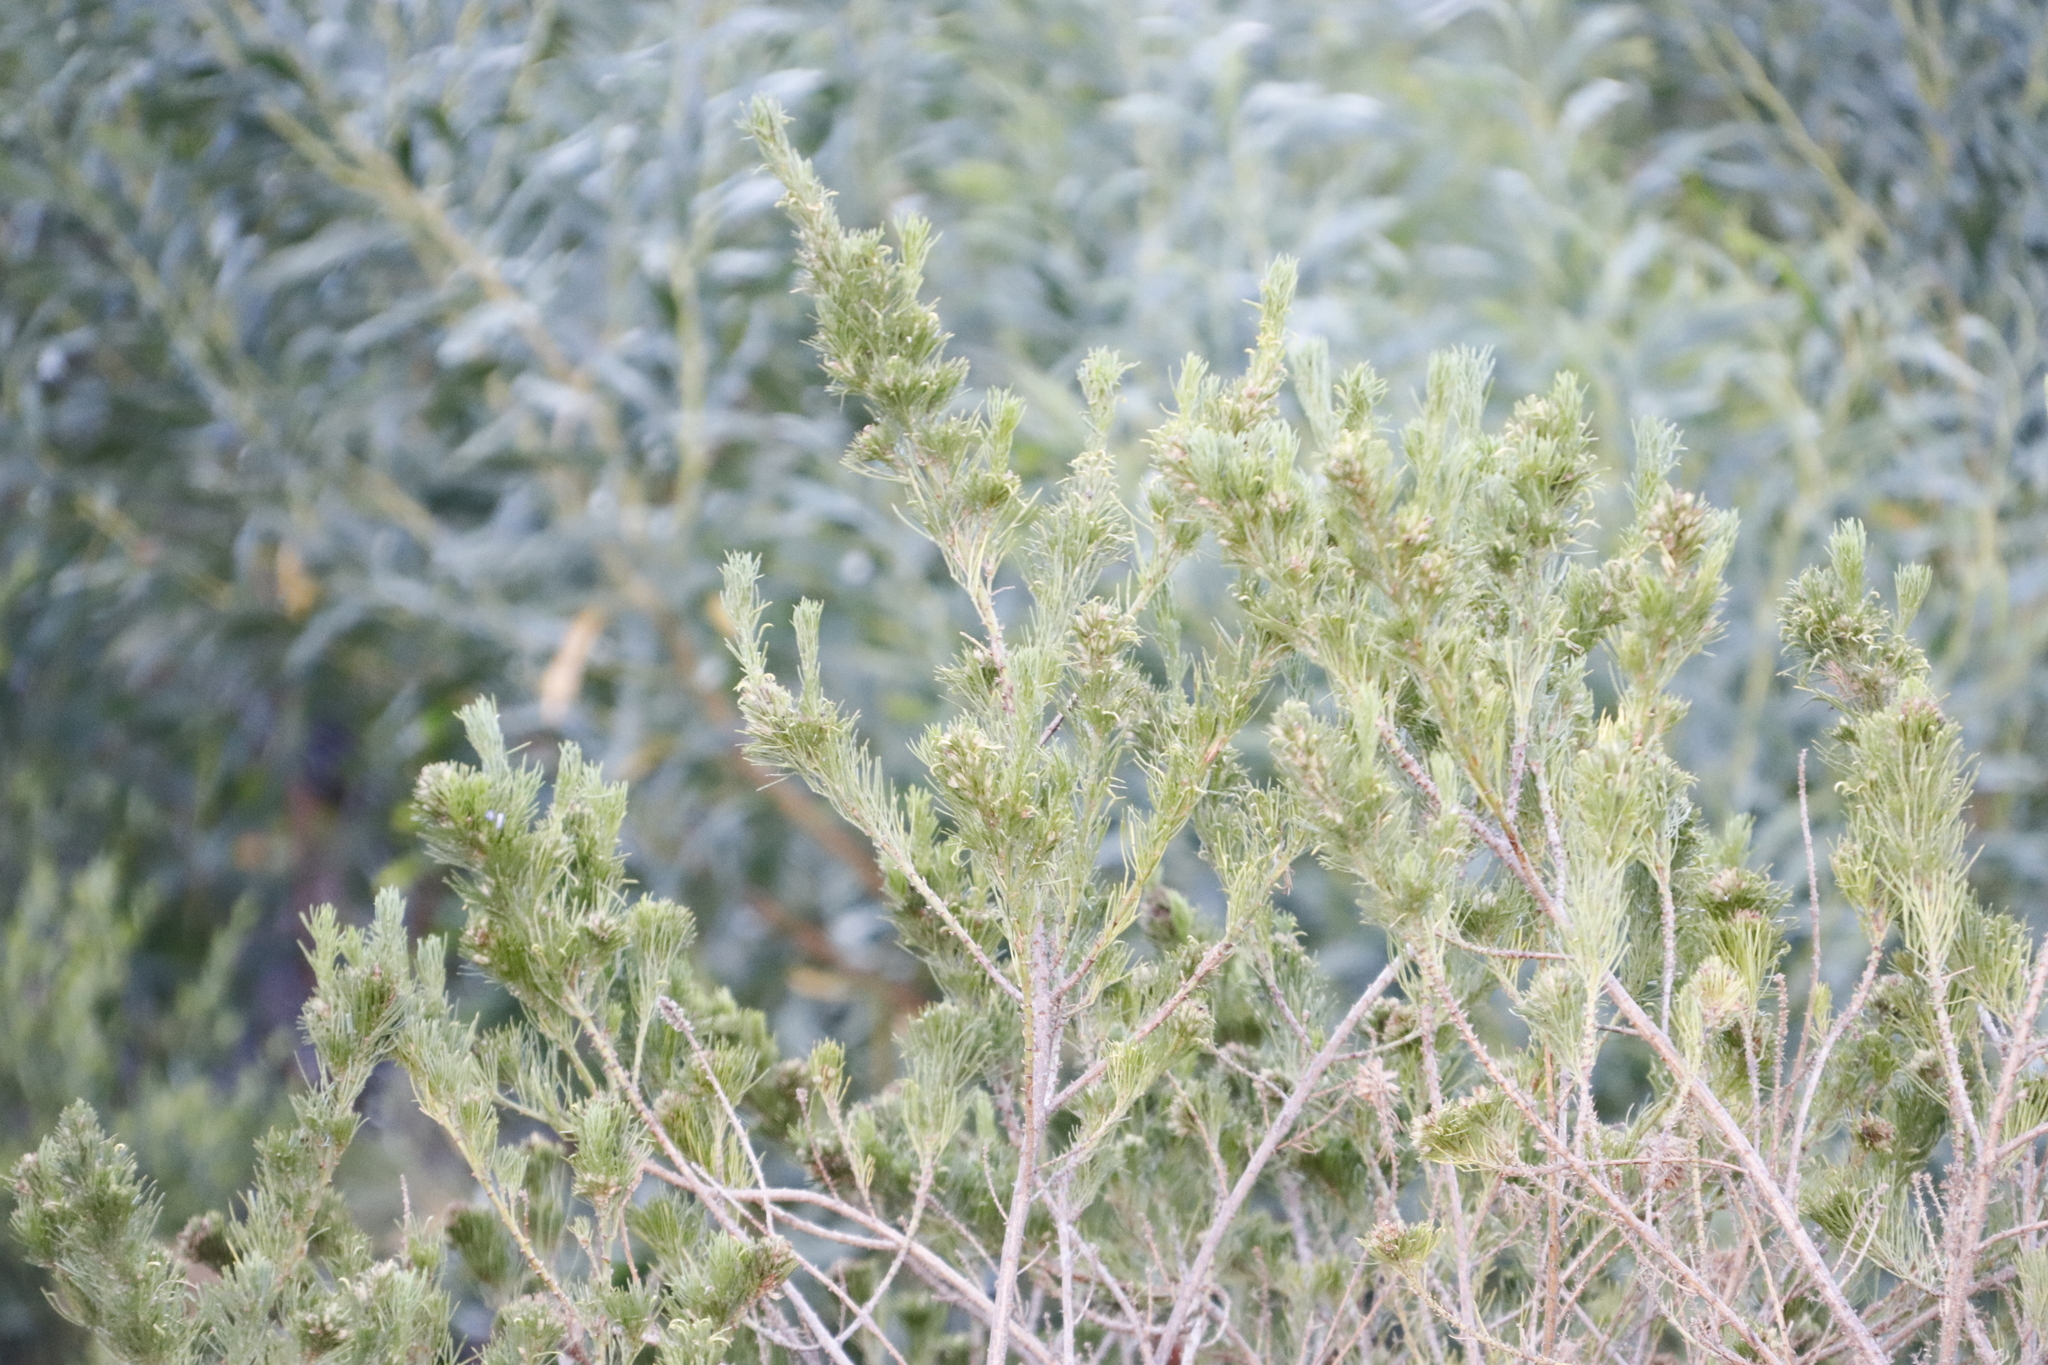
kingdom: Plantae
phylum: Tracheophyta
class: Magnoliopsida
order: Fabales
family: Fabaceae
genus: Psoralea
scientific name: Psoralea pinnata
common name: African scurfpea
